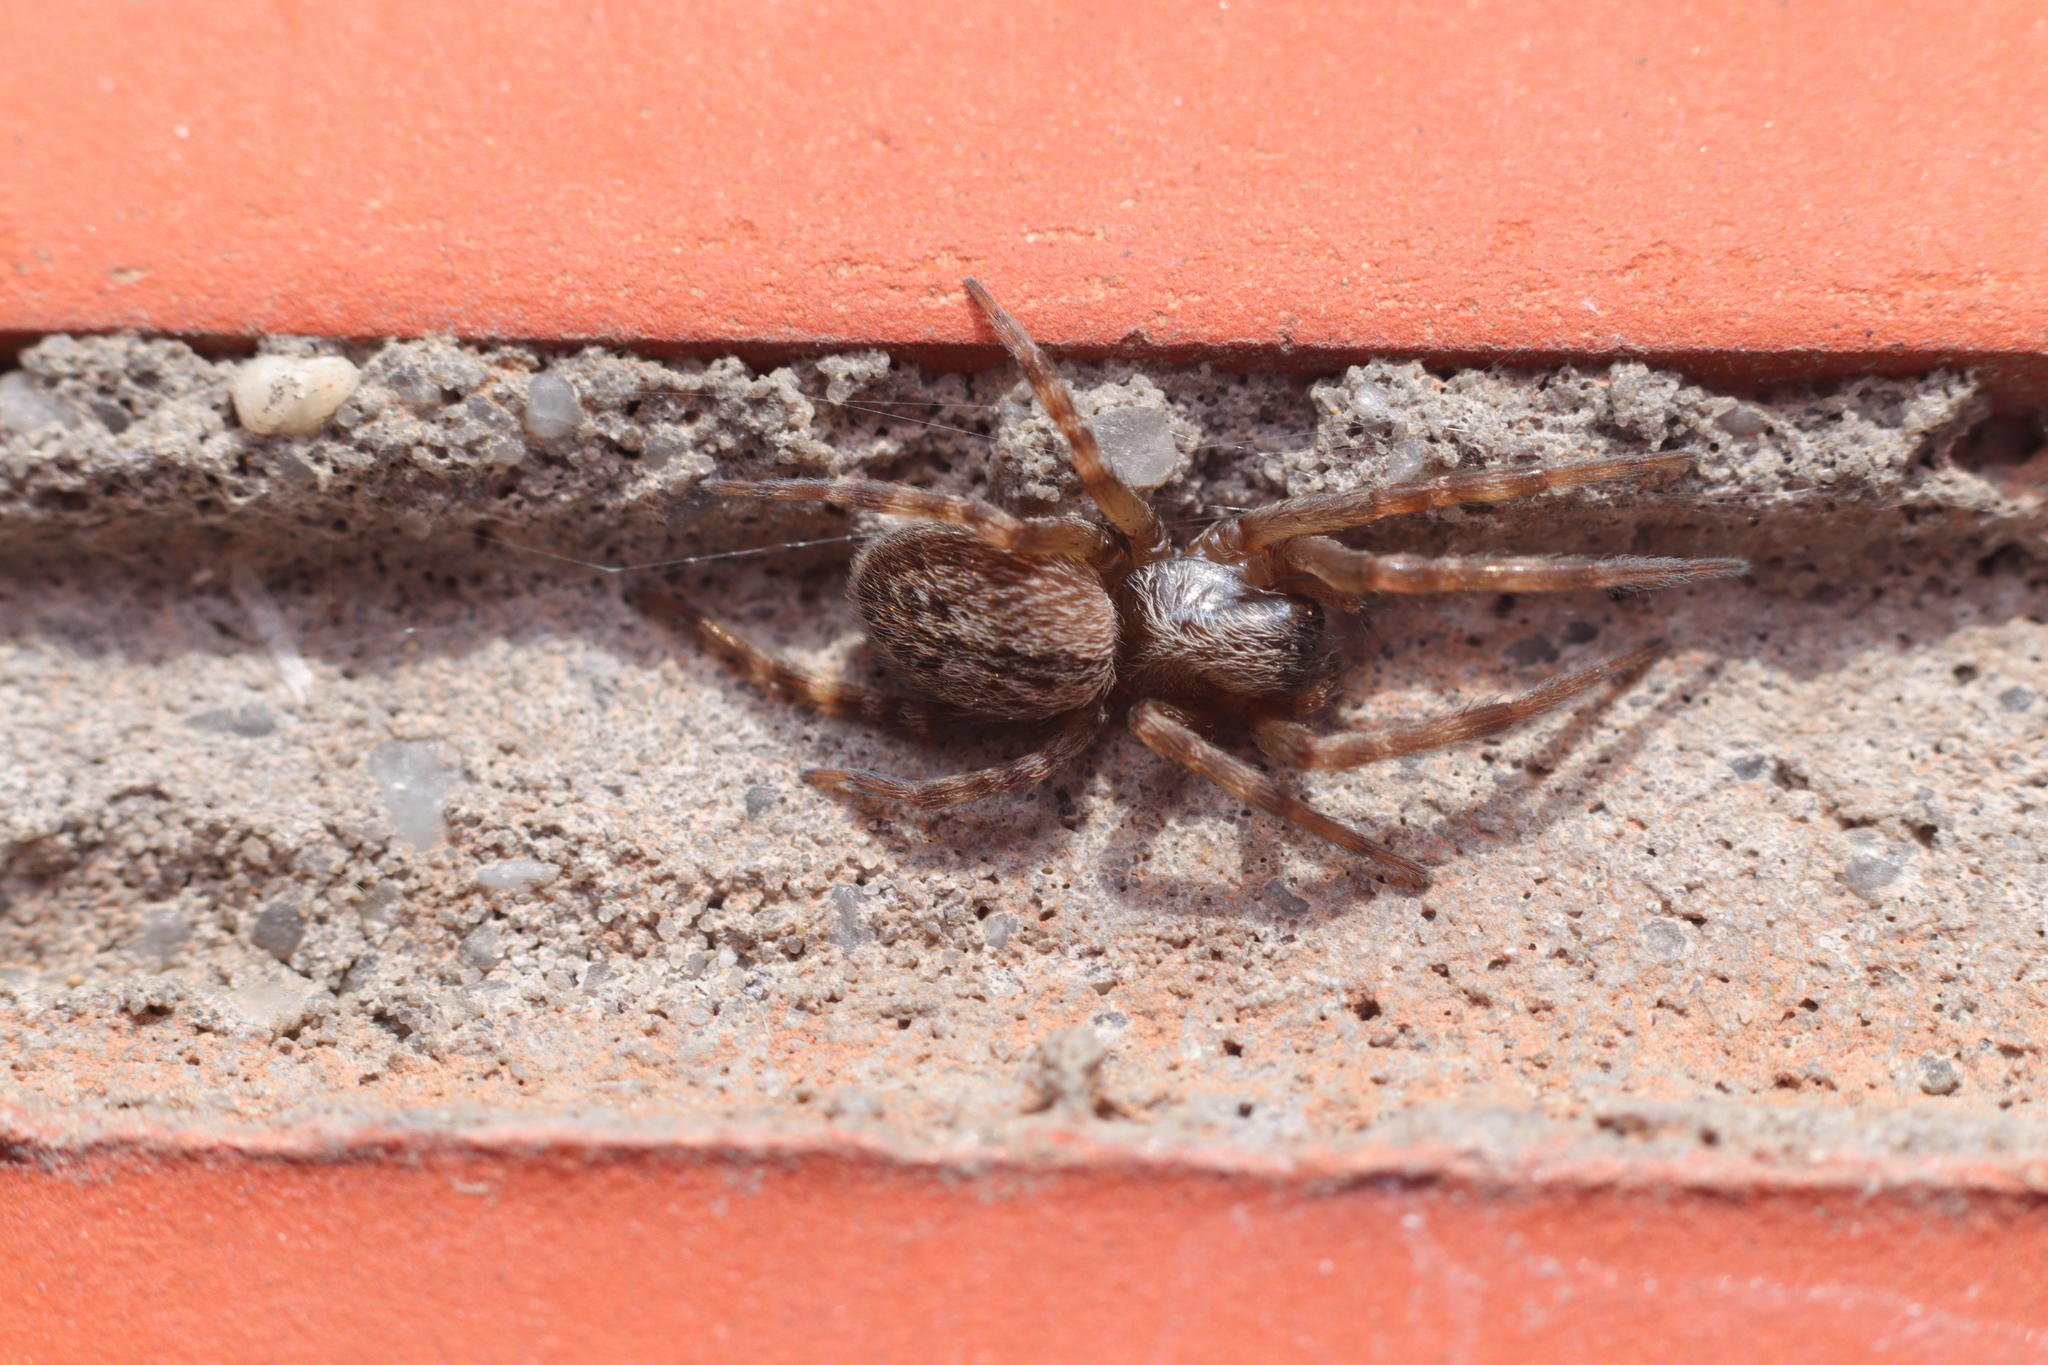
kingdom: Animalia
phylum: Arthropoda
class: Arachnida
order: Araneae
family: Desidae
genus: Badumna
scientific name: Badumna longinqua
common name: Gray house spider
